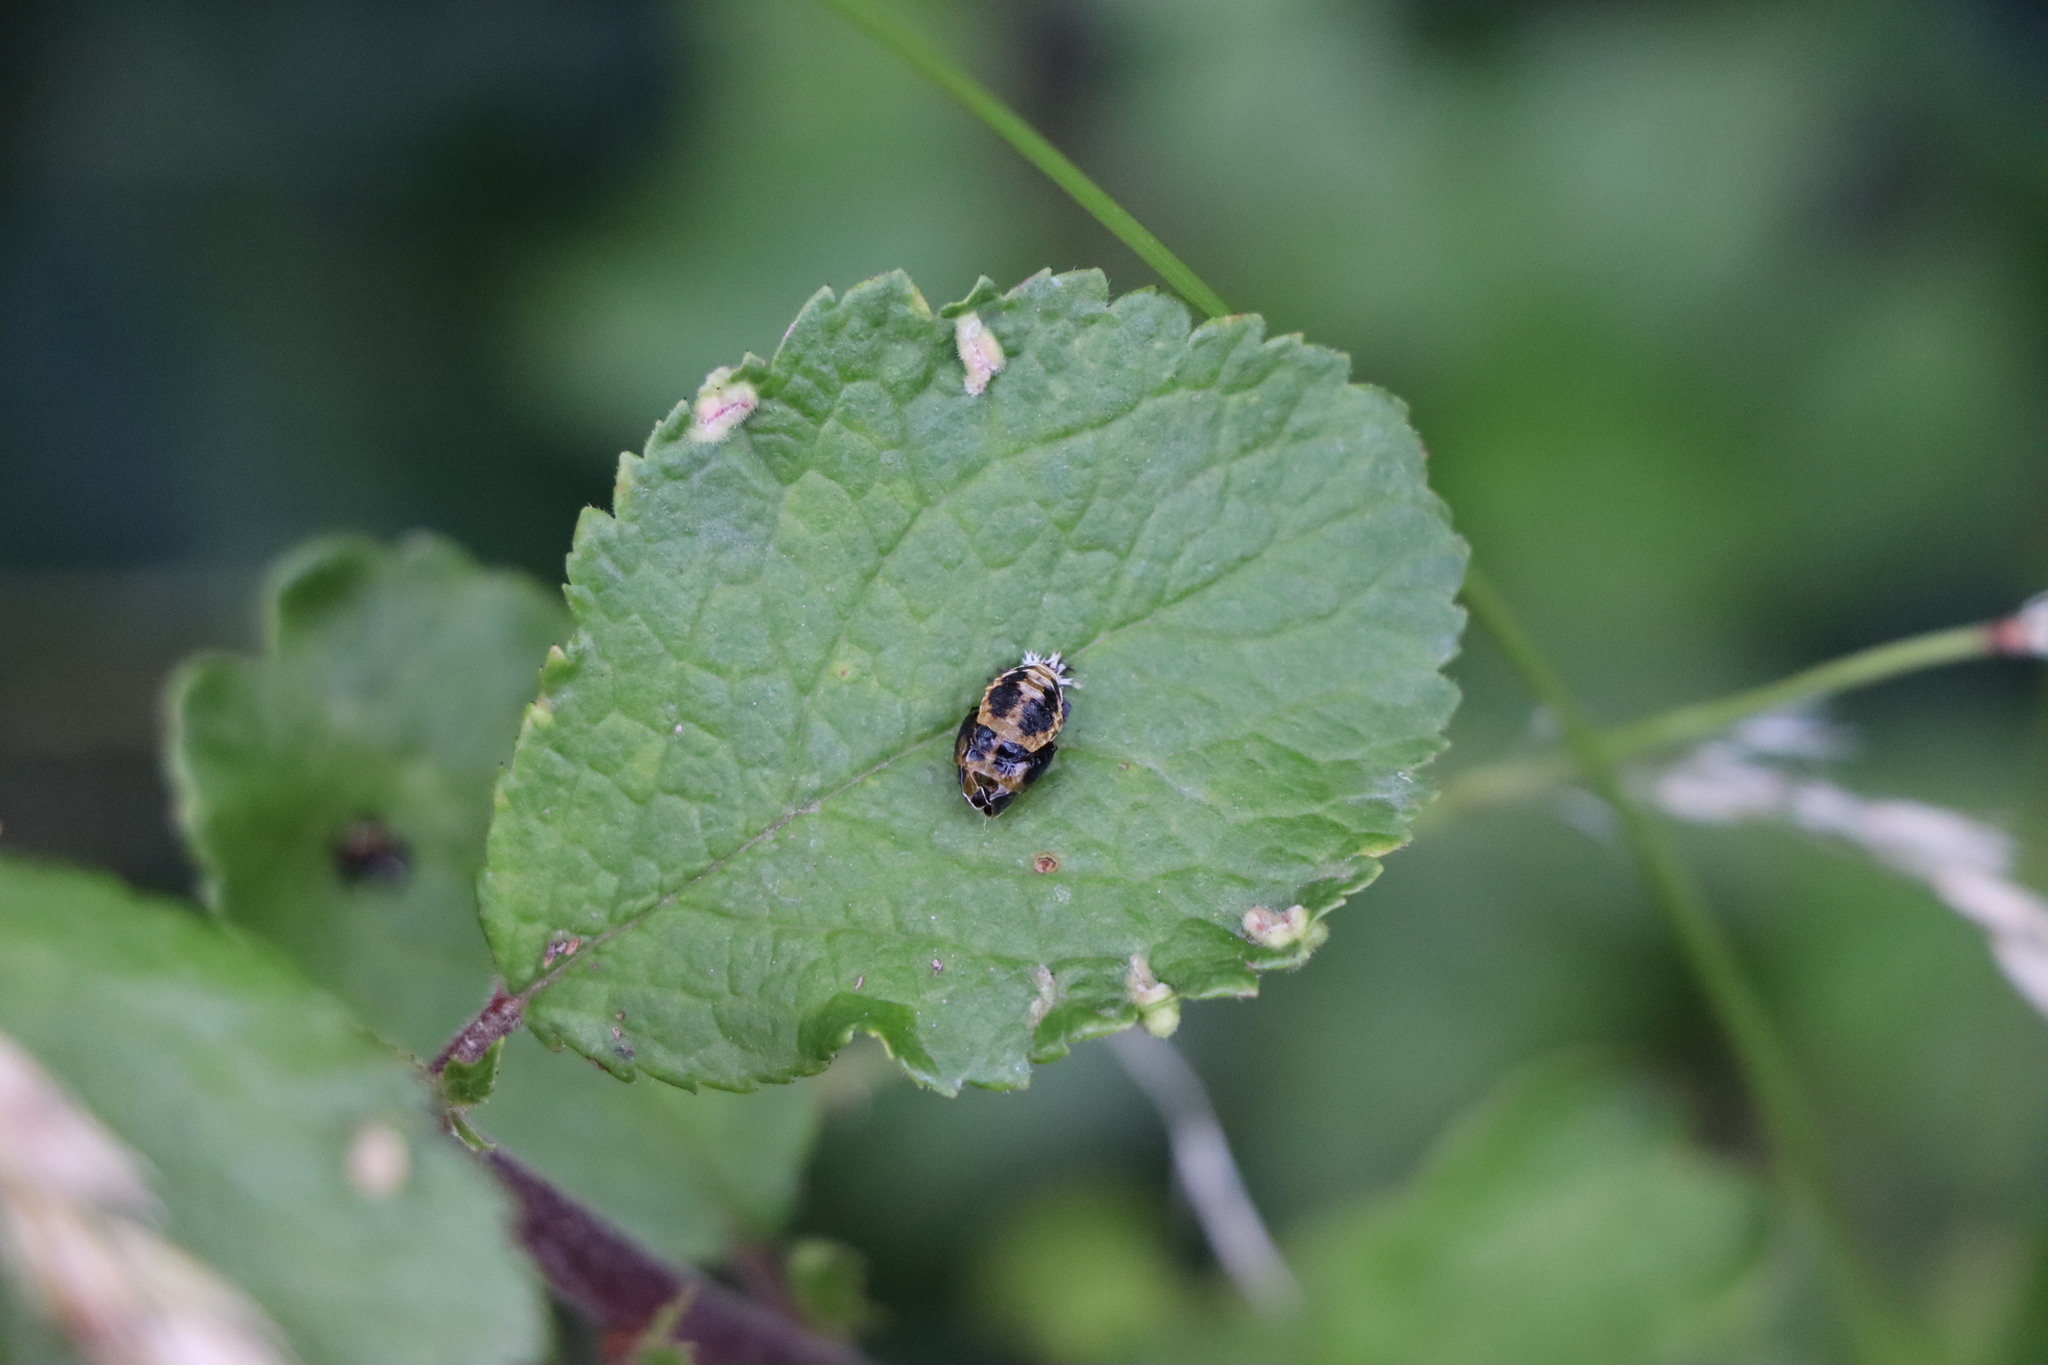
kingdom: Animalia
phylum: Arthropoda
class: Insecta
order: Coleoptera
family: Coccinellidae
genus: Harmonia
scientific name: Harmonia axyridis
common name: Harlequin ladybird
